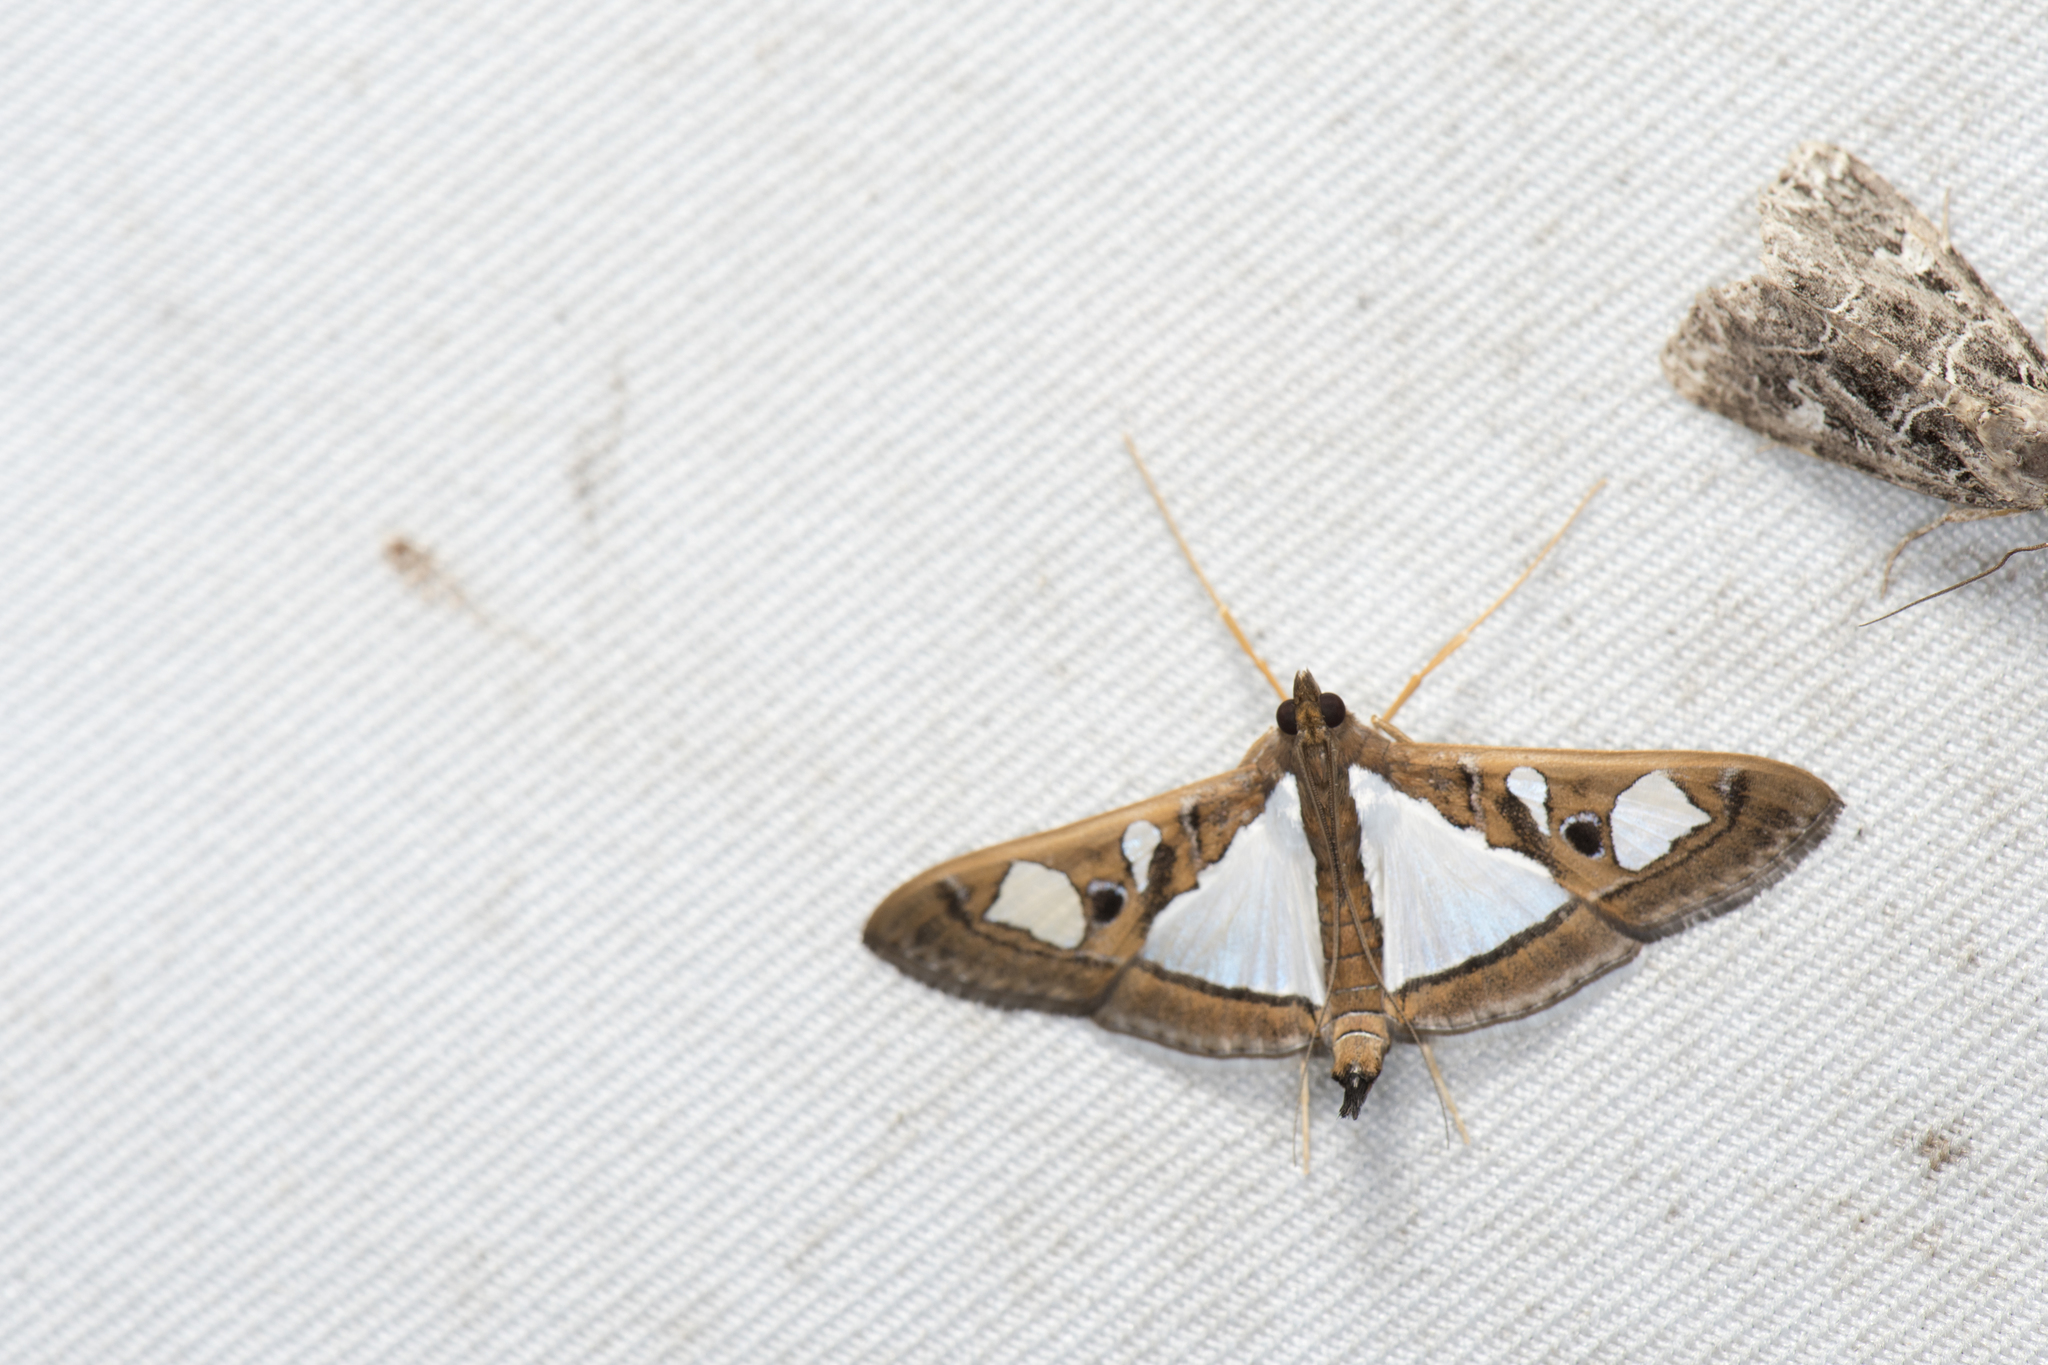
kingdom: Animalia
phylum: Arthropoda
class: Insecta
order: Lepidoptera
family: Crambidae
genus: Glyphodes
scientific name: Glyphodes bivitralis
